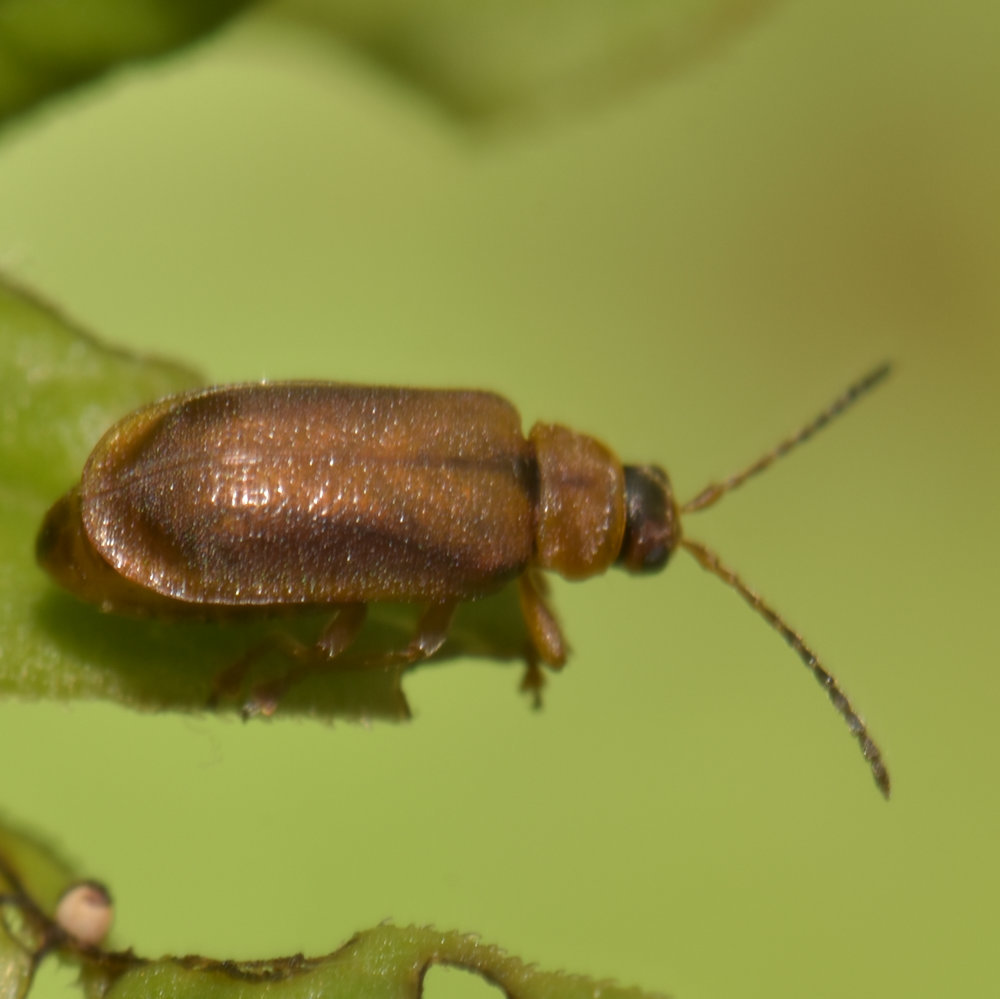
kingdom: Animalia
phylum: Arthropoda
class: Insecta
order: Coleoptera
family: Chrysomelidae
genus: Galerucella
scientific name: Galerucella pusilla
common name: Leaf beetle
